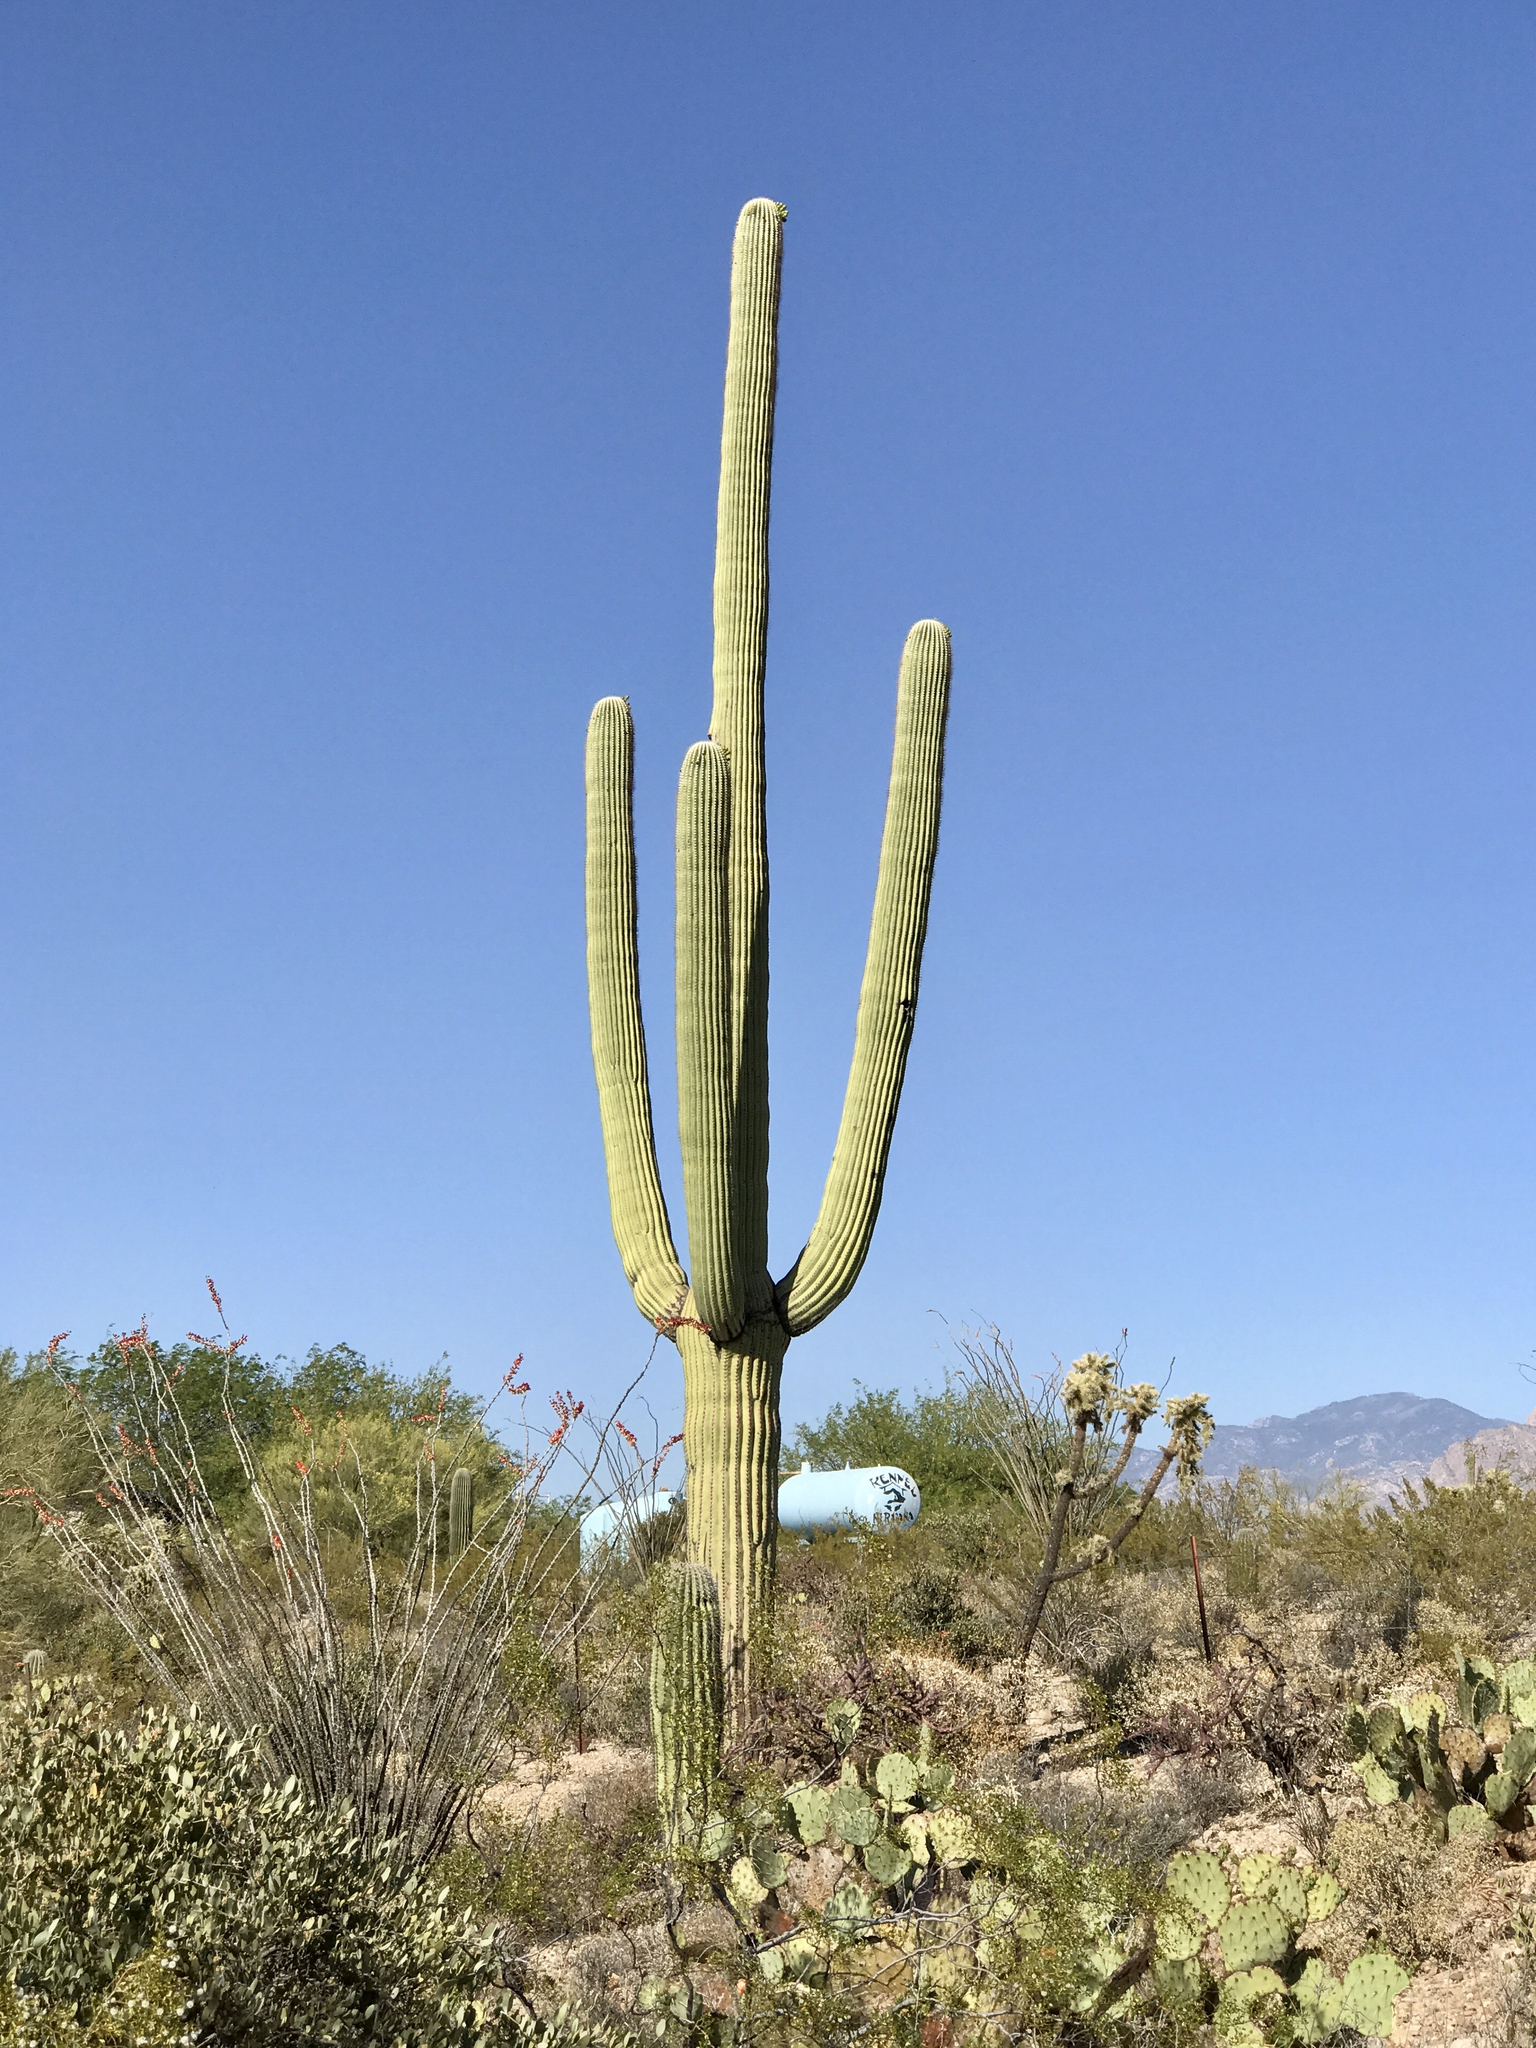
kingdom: Plantae
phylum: Tracheophyta
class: Magnoliopsida
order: Caryophyllales
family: Cactaceae
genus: Carnegiea
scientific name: Carnegiea gigantea
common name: Saguaro
